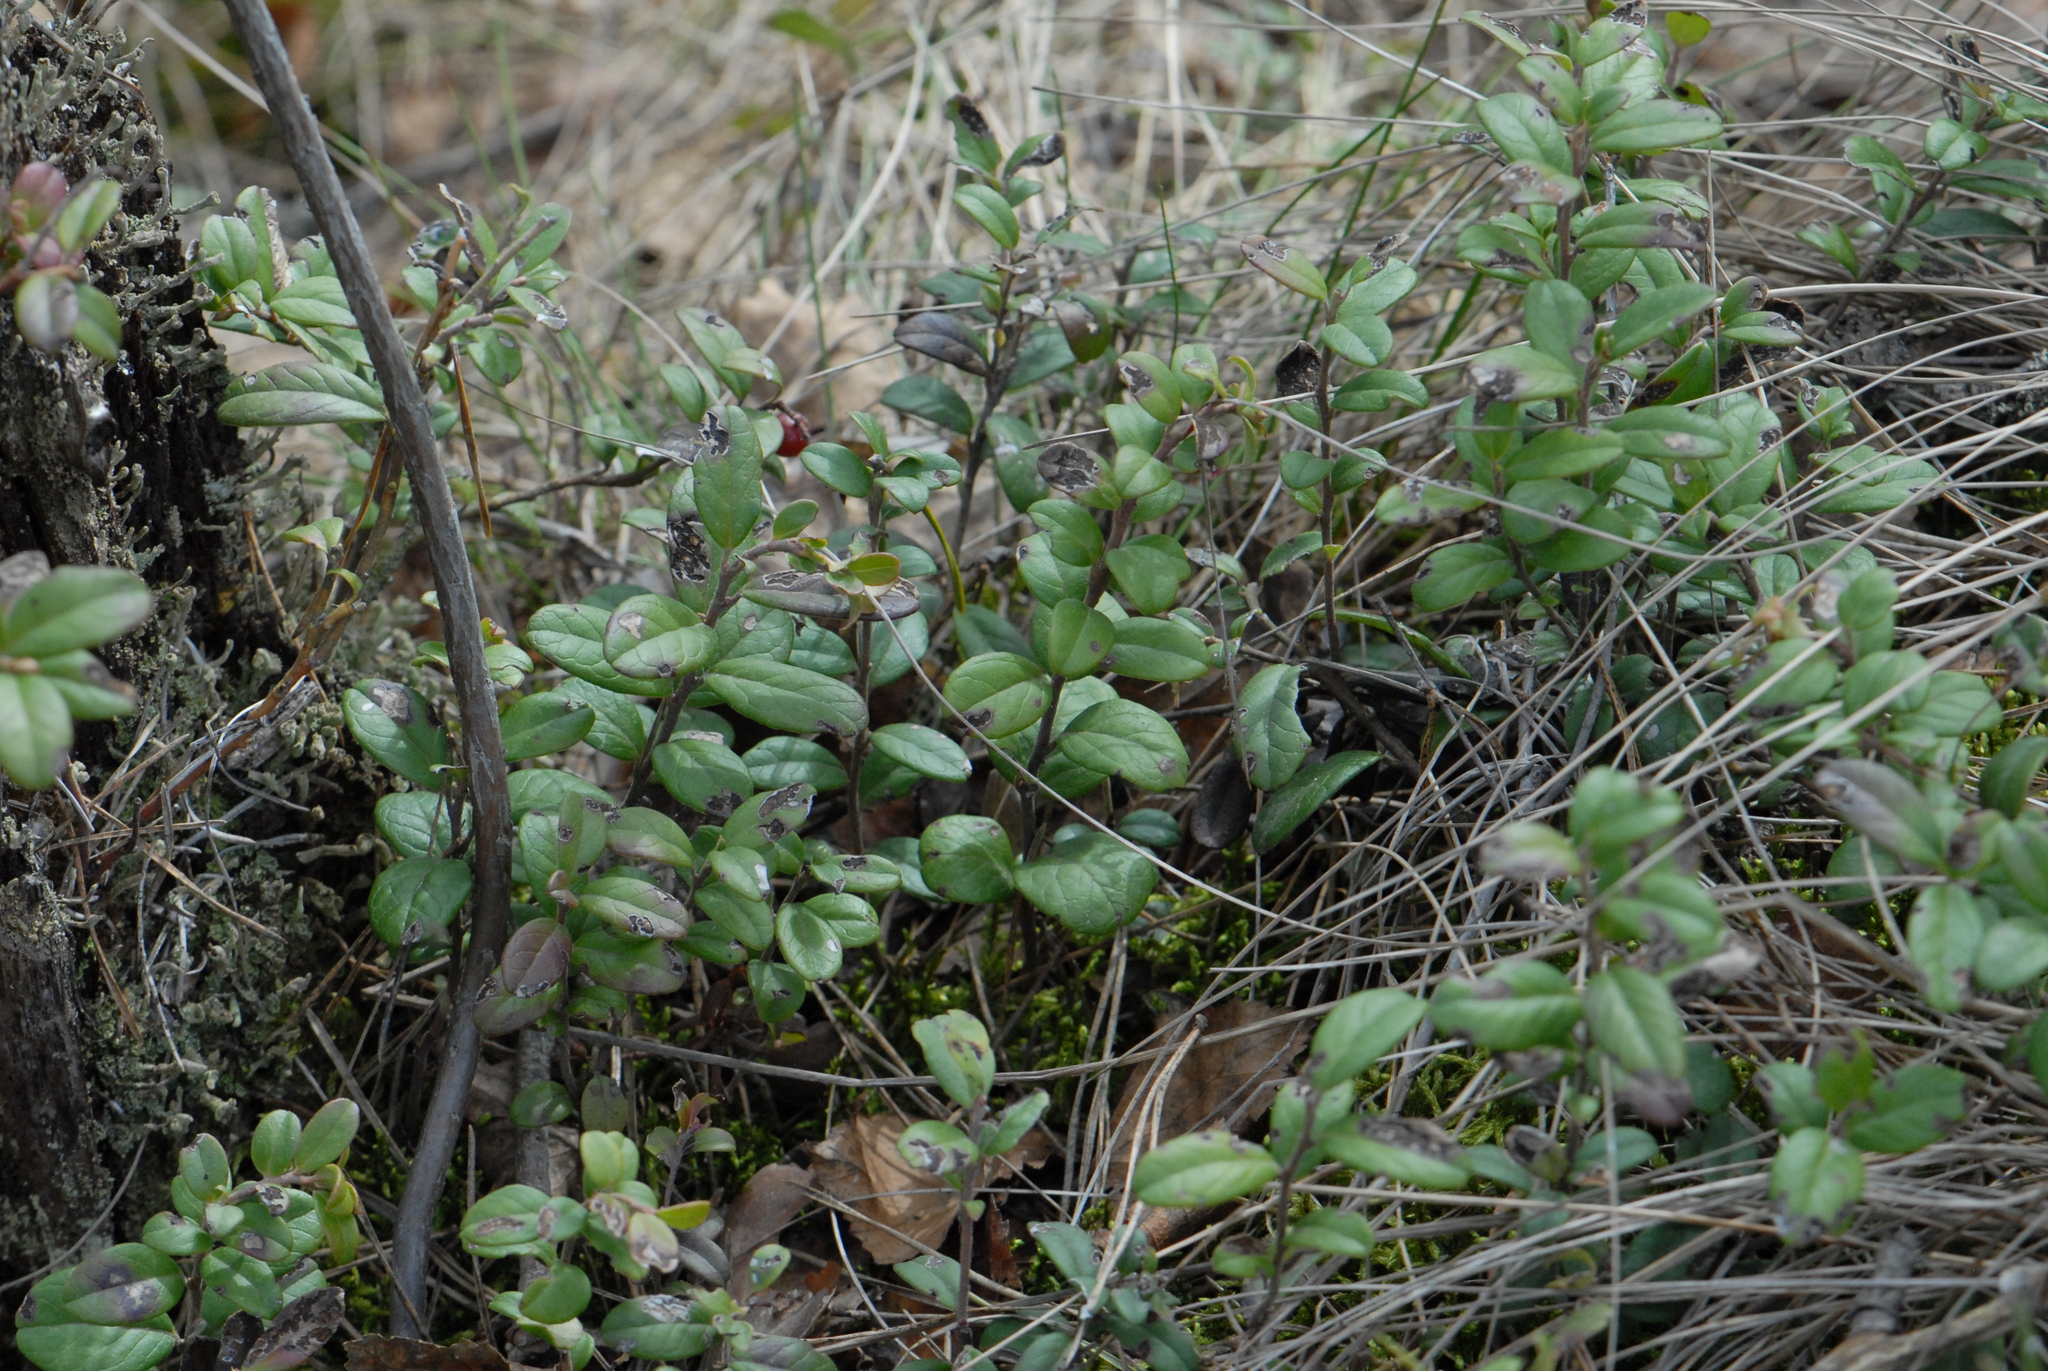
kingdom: Plantae
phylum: Tracheophyta
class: Magnoliopsida
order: Ericales
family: Ericaceae
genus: Vaccinium
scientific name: Vaccinium vitis-idaea
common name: Cowberry
